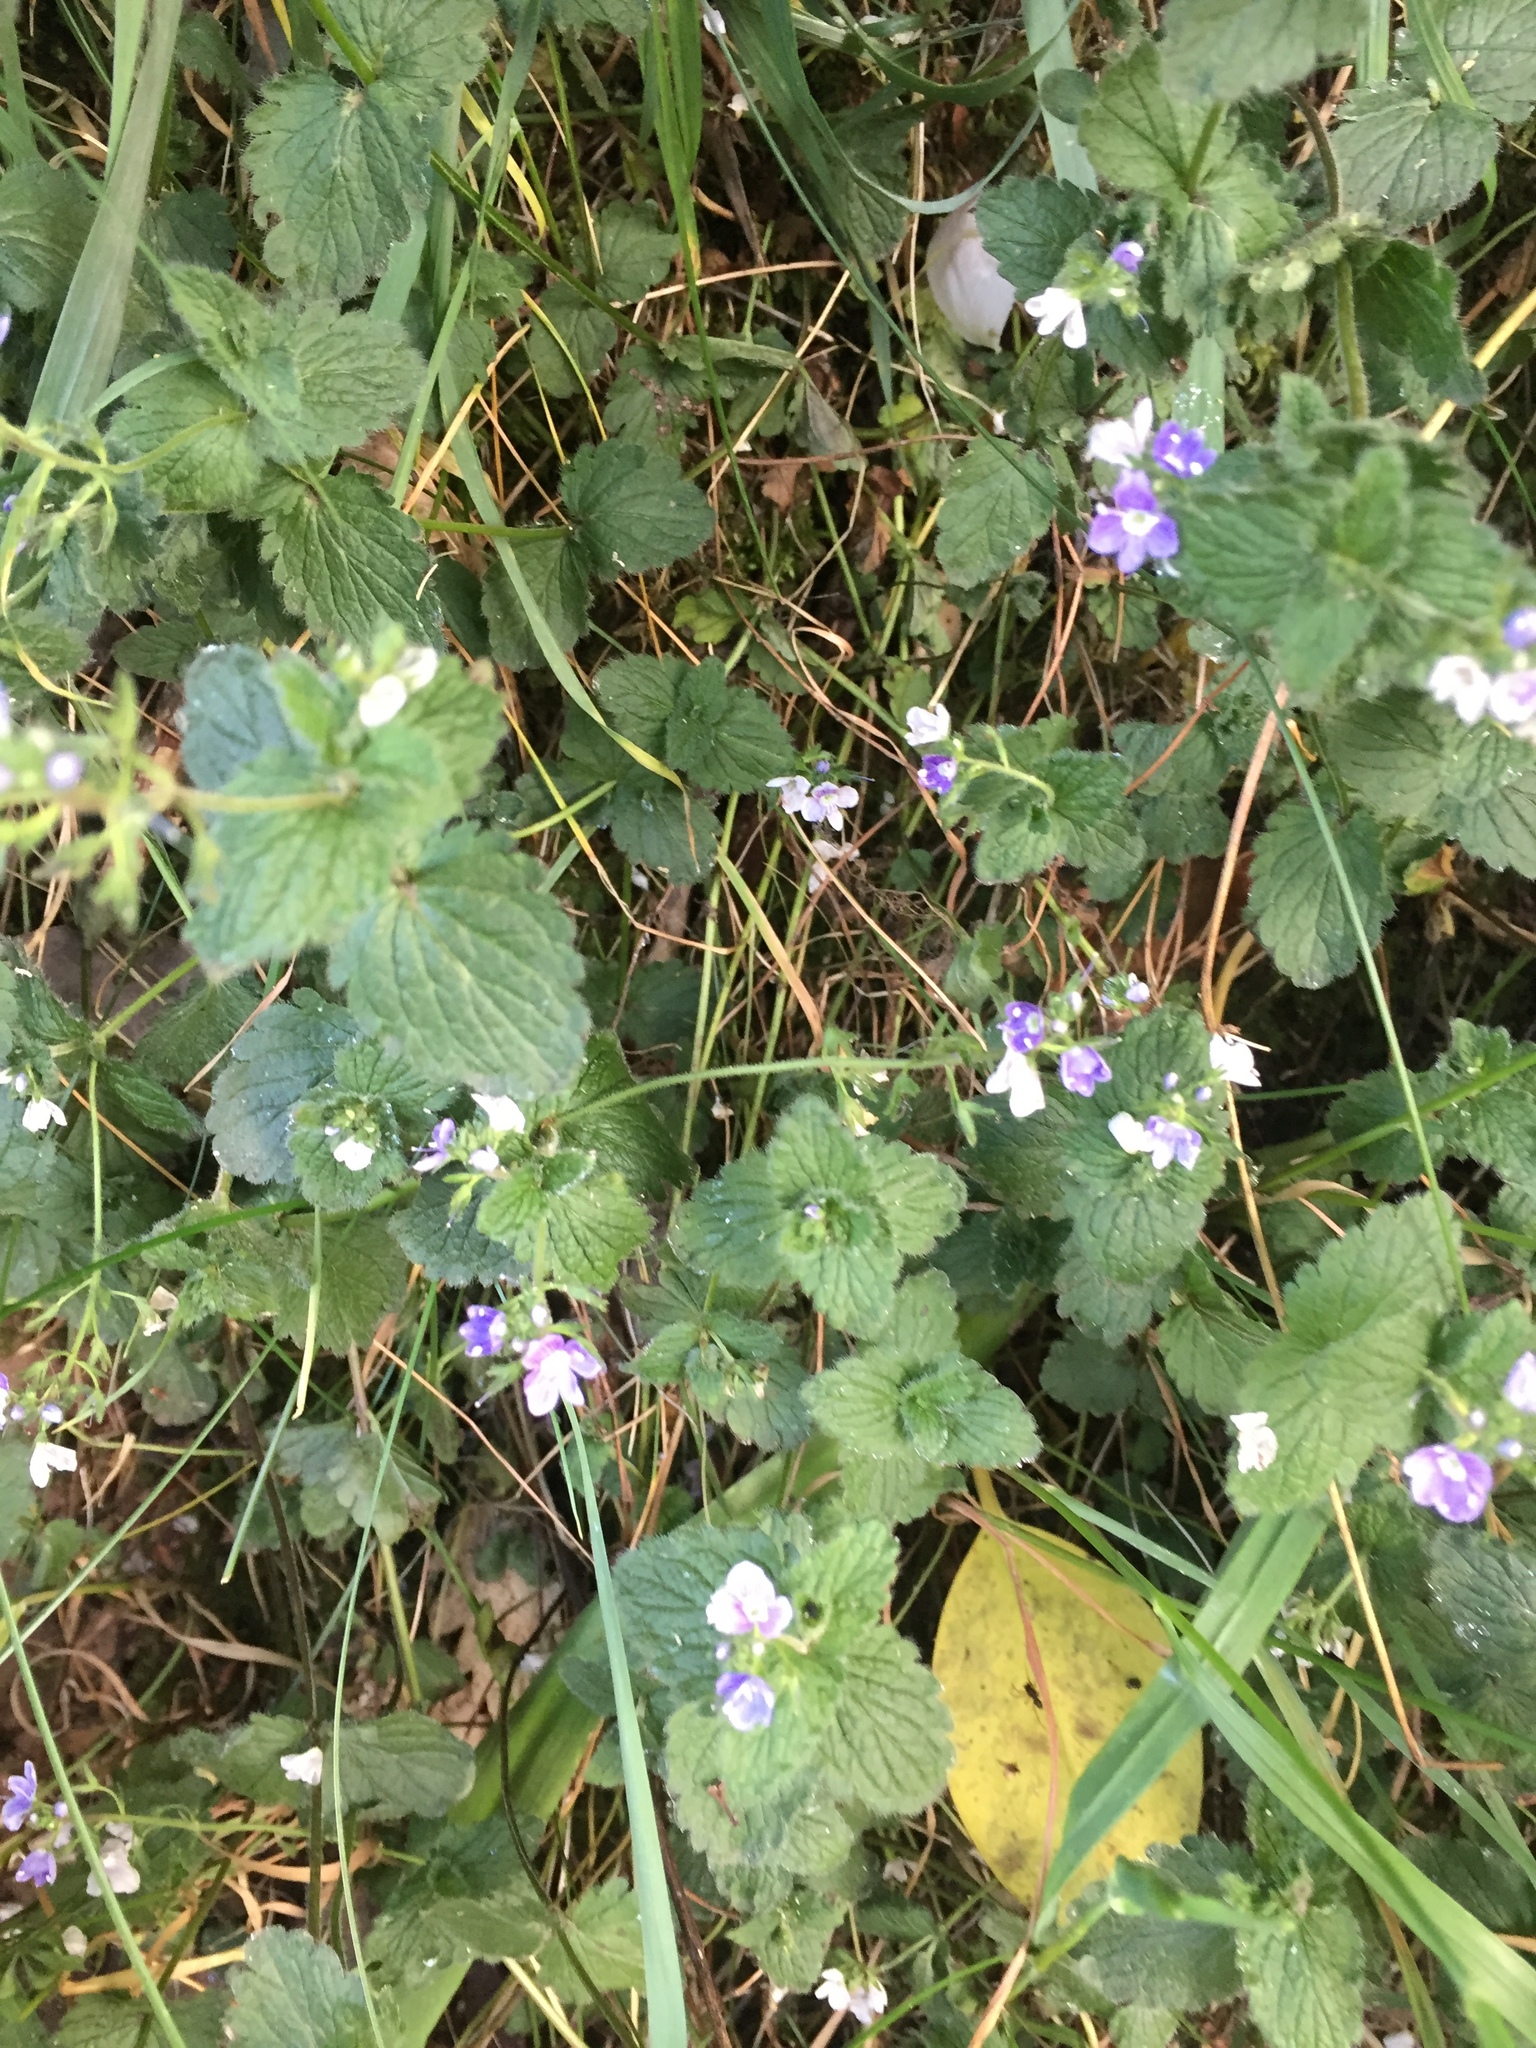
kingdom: Plantae
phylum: Tracheophyta
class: Magnoliopsida
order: Lamiales
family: Plantaginaceae
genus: Veronica
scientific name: Veronica chamaedrys
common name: Germander speedwell
